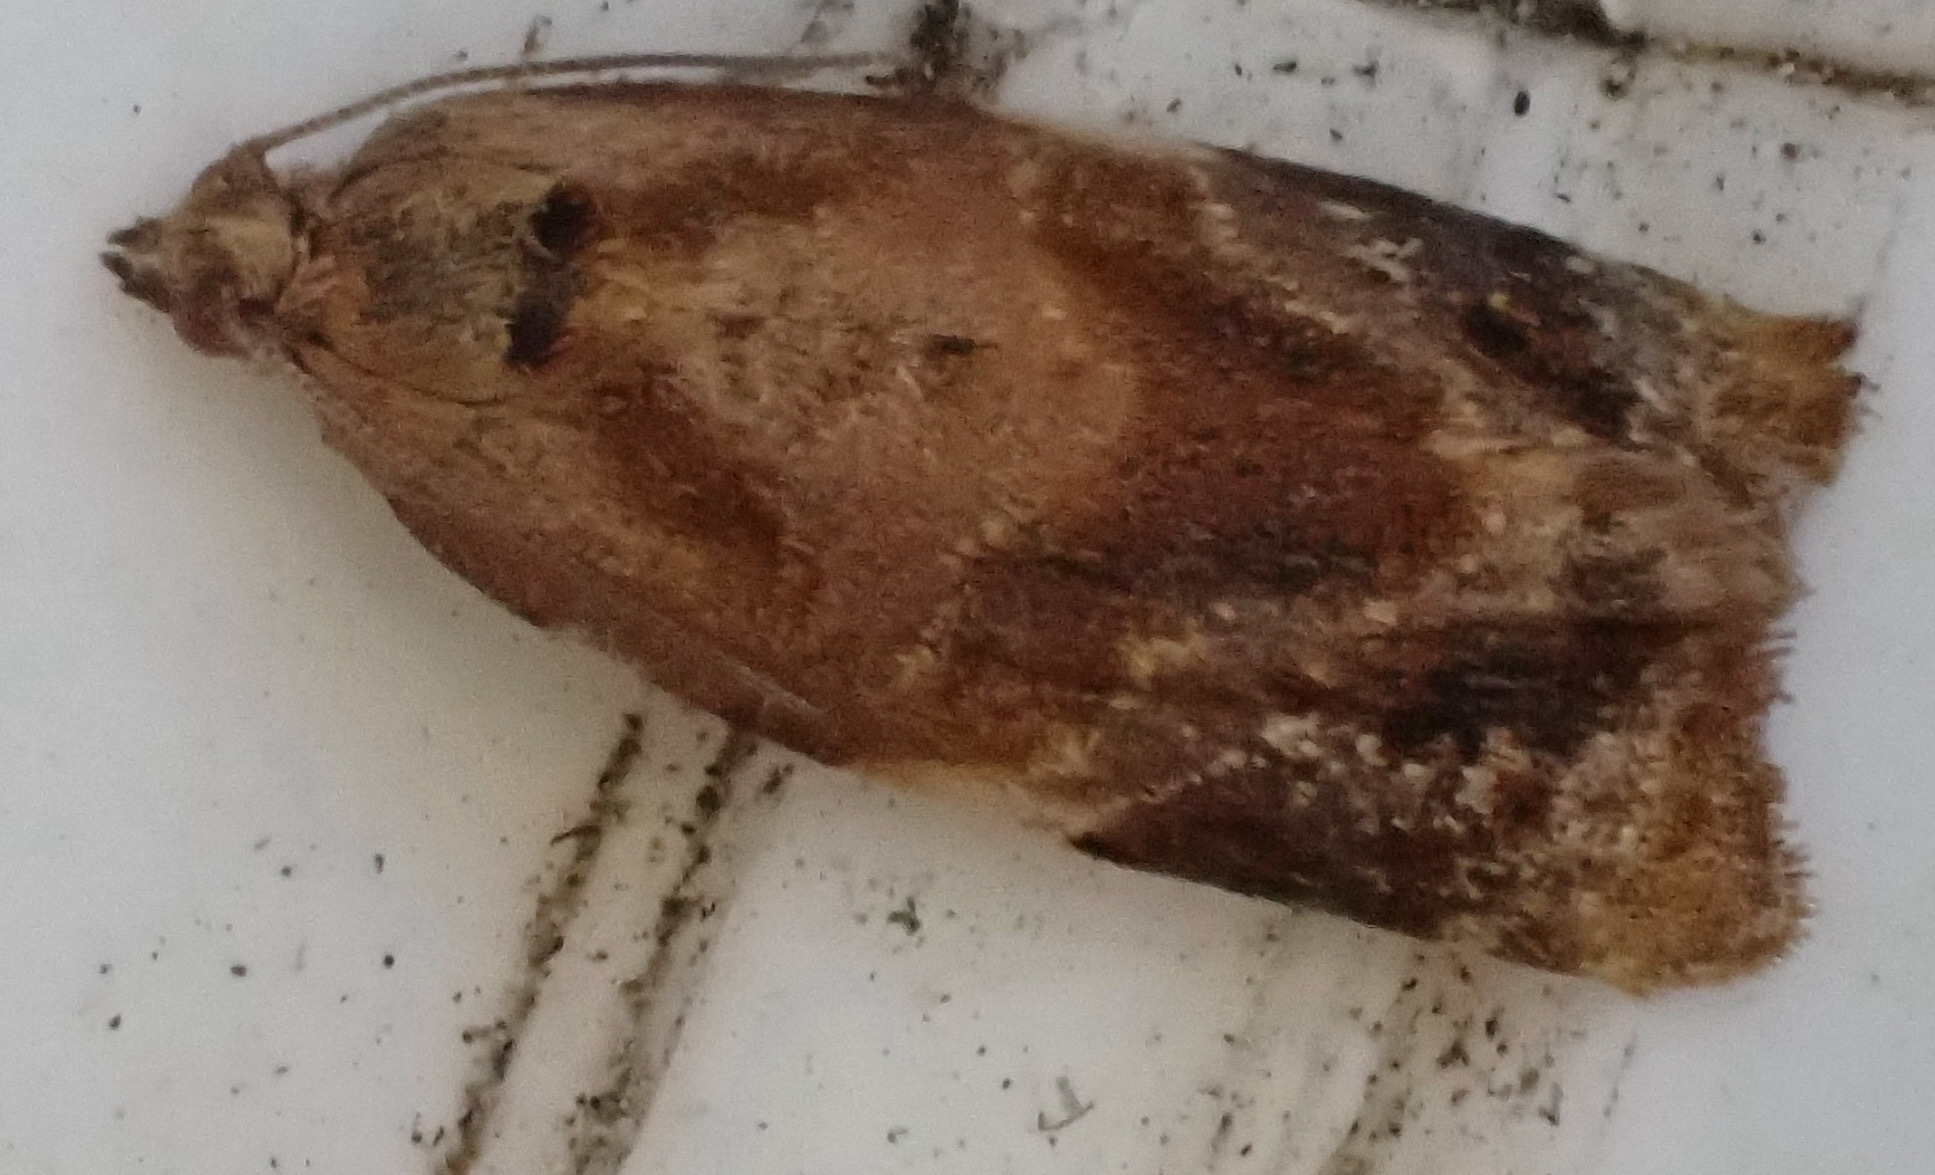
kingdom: Animalia
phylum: Arthropoda
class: Insecta
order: Lepidoptera
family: Tortricidae
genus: Ditula
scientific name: Ditula angustiorana
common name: Red-barred tortrix
